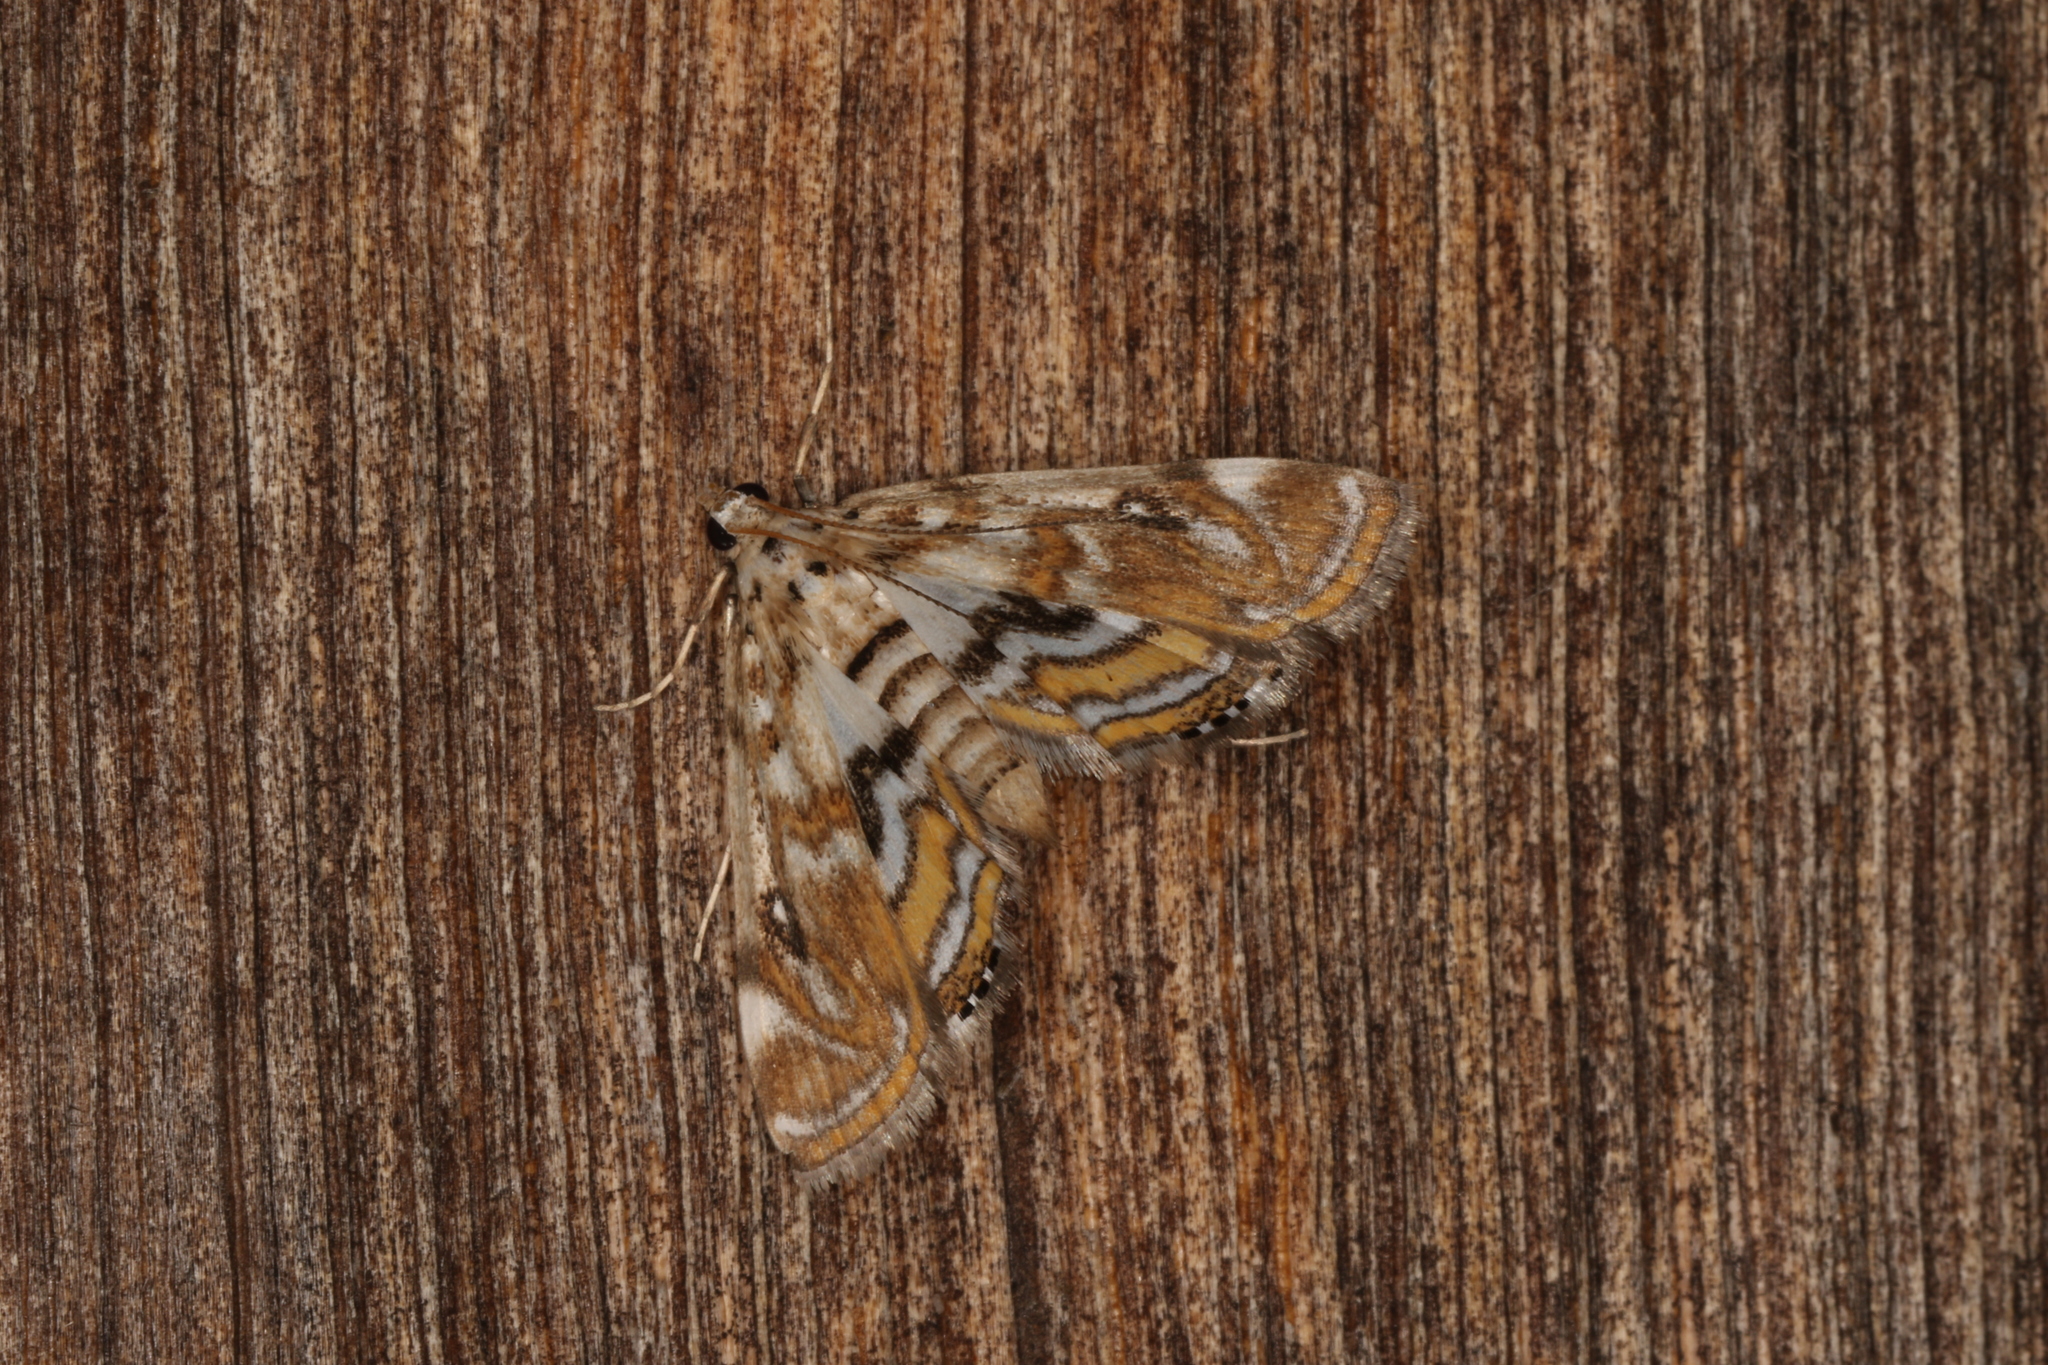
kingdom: Animalia
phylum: Arthropoda
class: Insecta
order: Lepidoptera
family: Crambidae
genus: Parapoynx
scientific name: Parapoynx polydectalis
